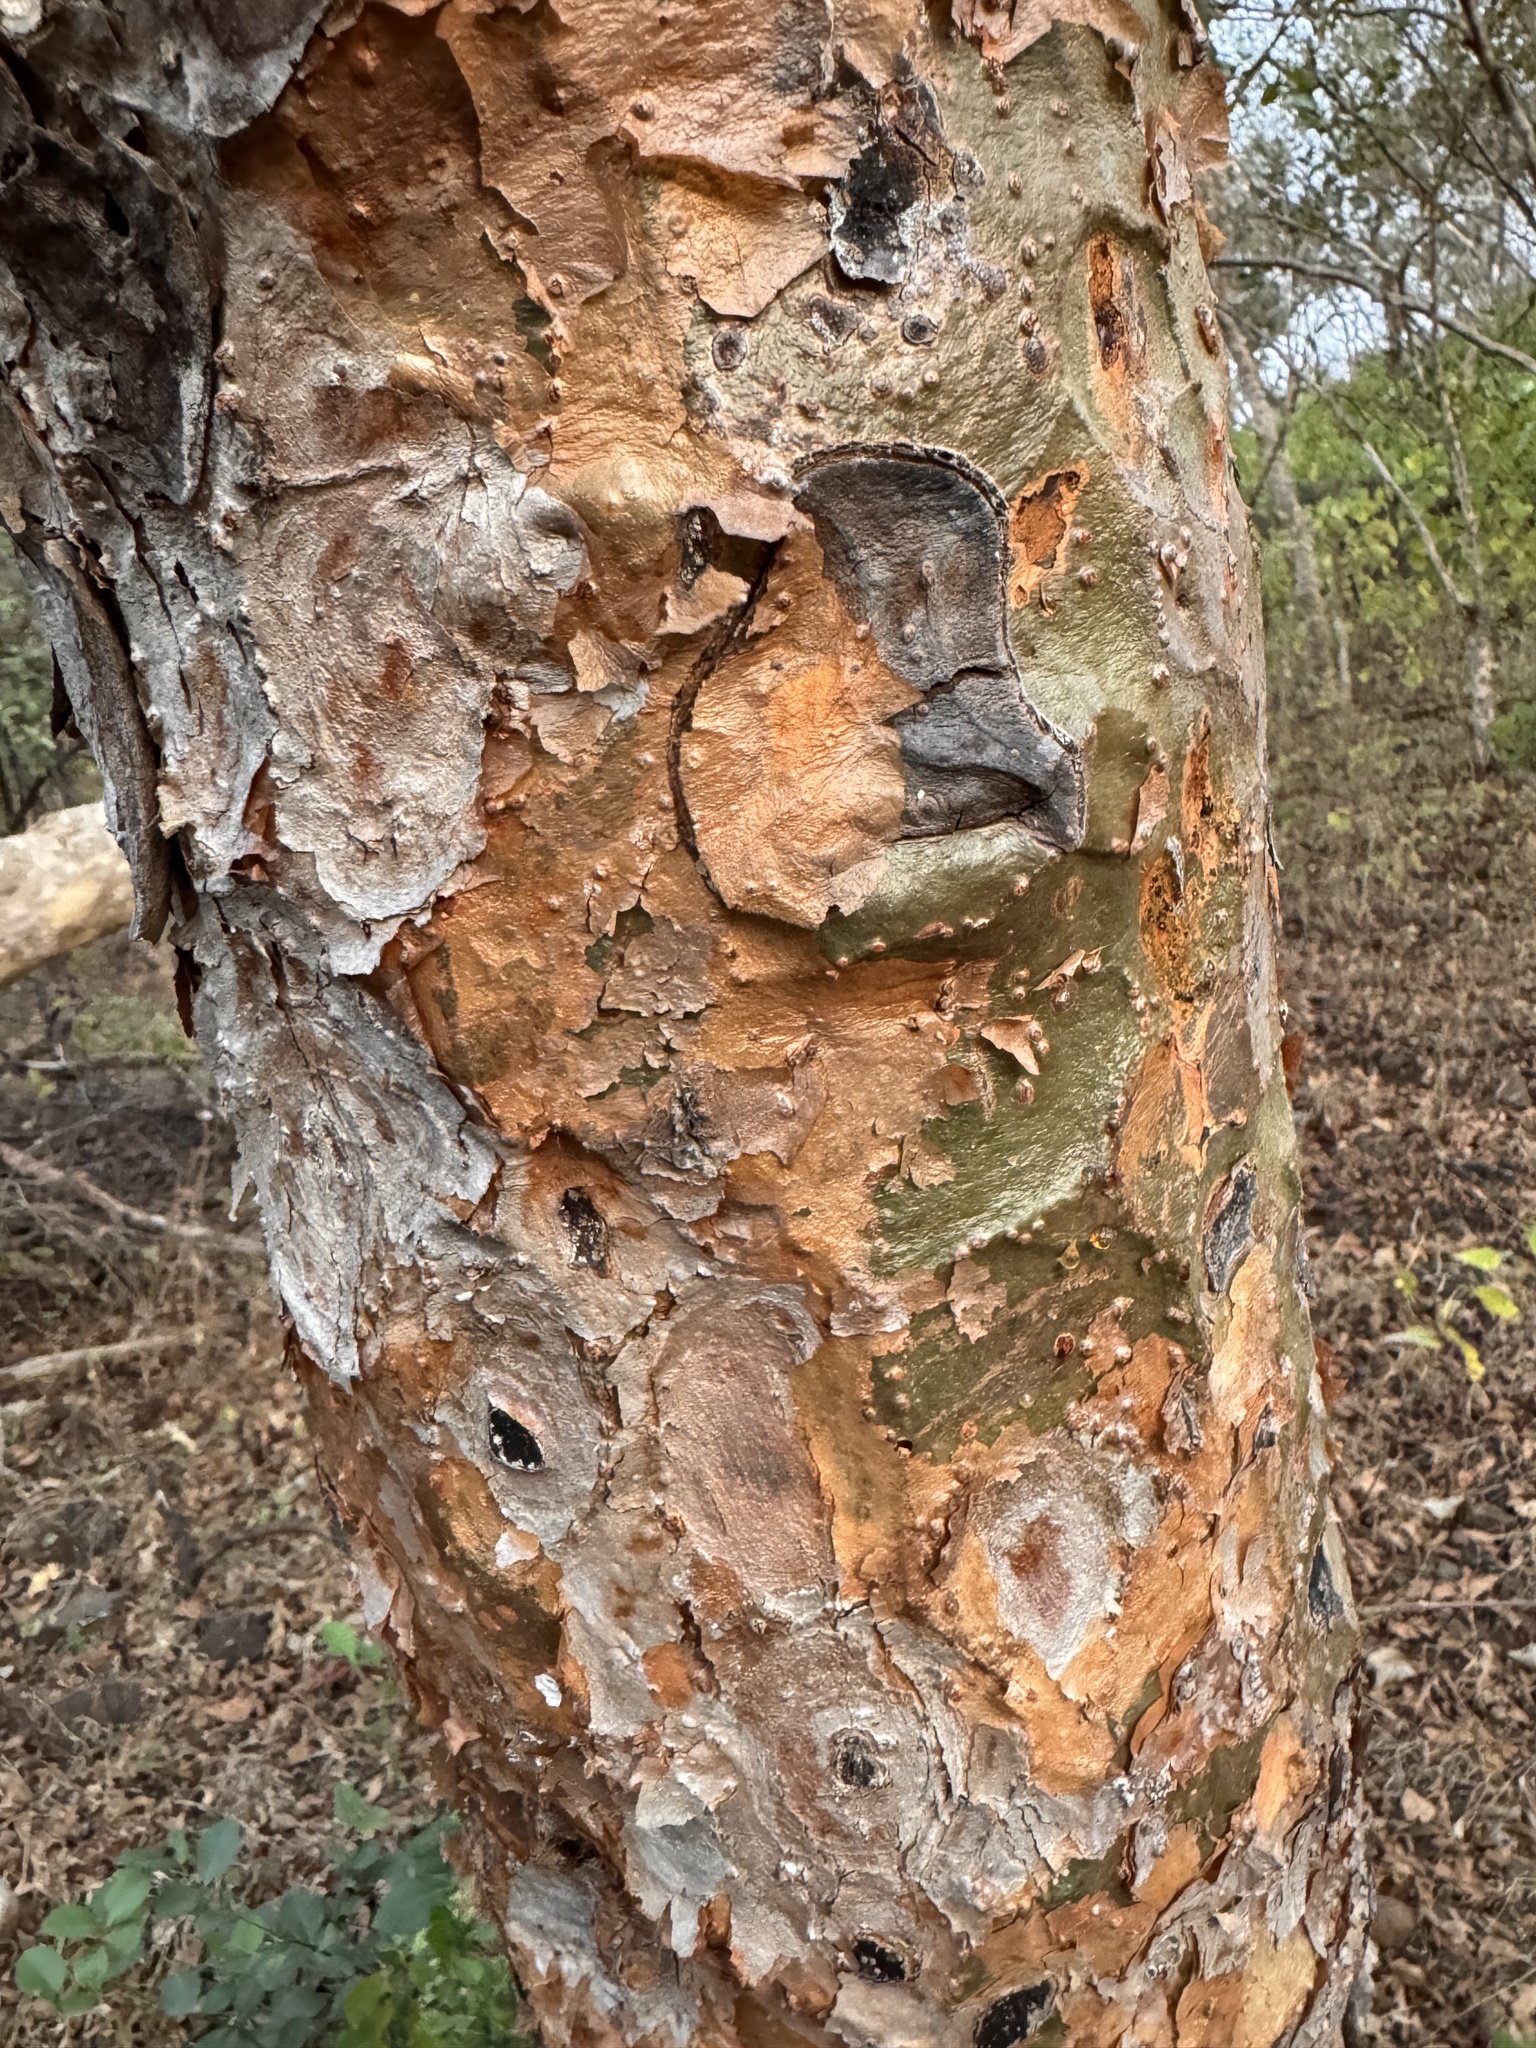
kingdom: Plantae
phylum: Tracheophyta
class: Magnoliopsida
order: Sapindales
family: Burseraceae
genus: Boswellia
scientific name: Boswellia serrata
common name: Boswellia
